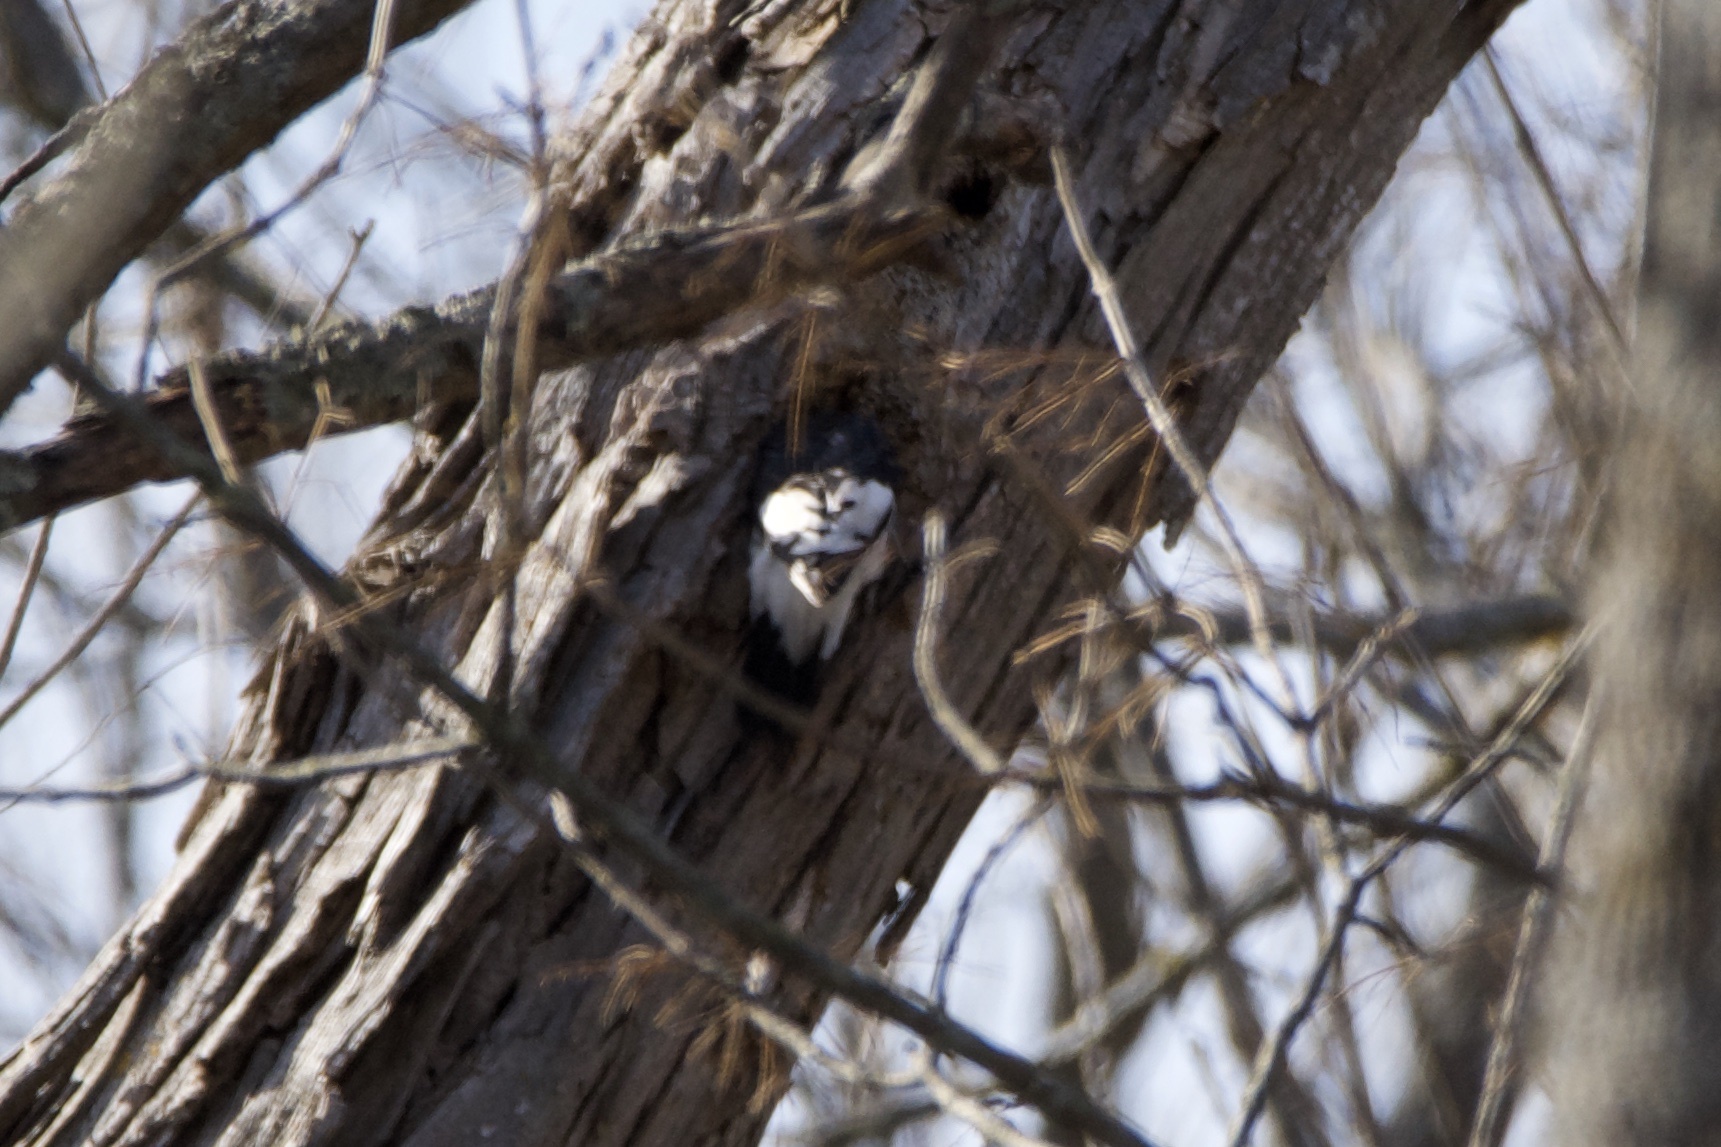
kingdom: Animalia
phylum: Chordata
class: Aves
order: Piciformes
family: Picidae
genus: Melanerpes
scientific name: Melanerpes erythrocephalus
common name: Red-headed woodpecker
